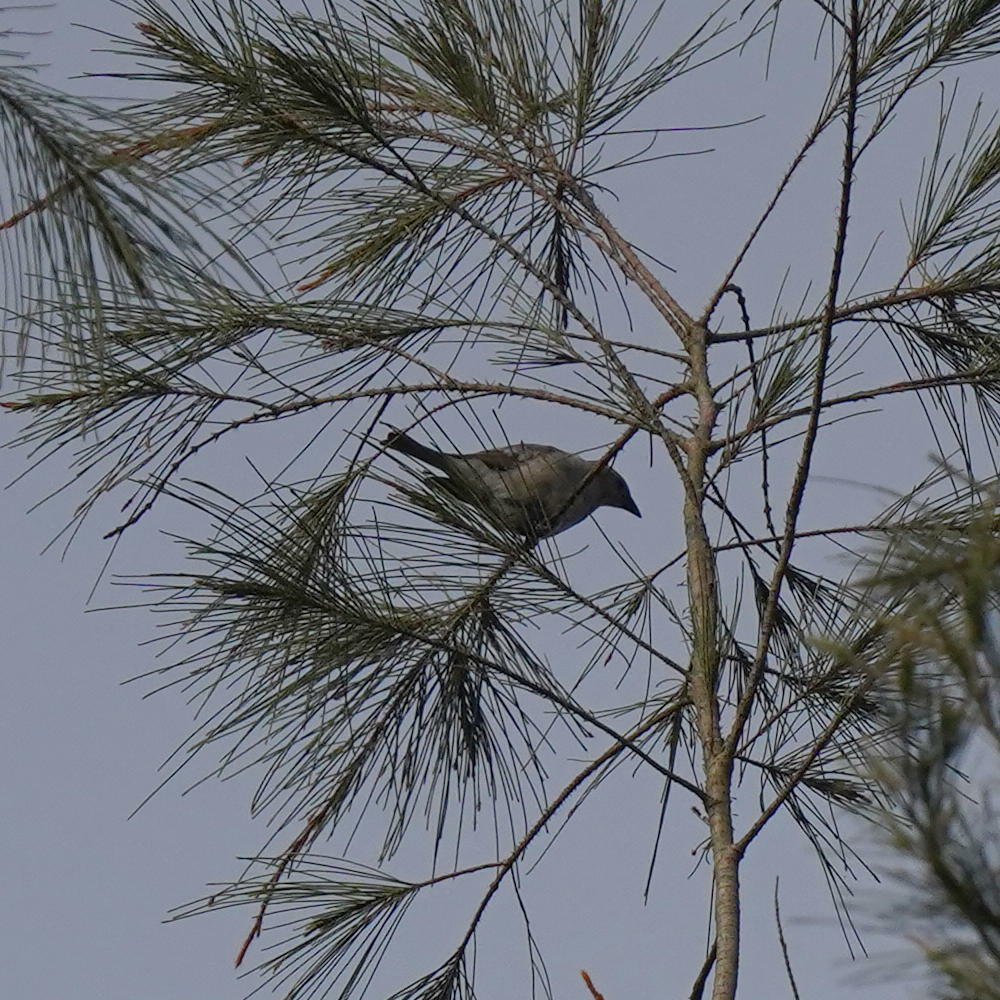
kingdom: Animalia
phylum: Chordata
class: Aves
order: Passeriformes
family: Passeridae
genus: Gymnoris
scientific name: Gymnoris xanthocollis
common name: Yellow-throated sparrow
